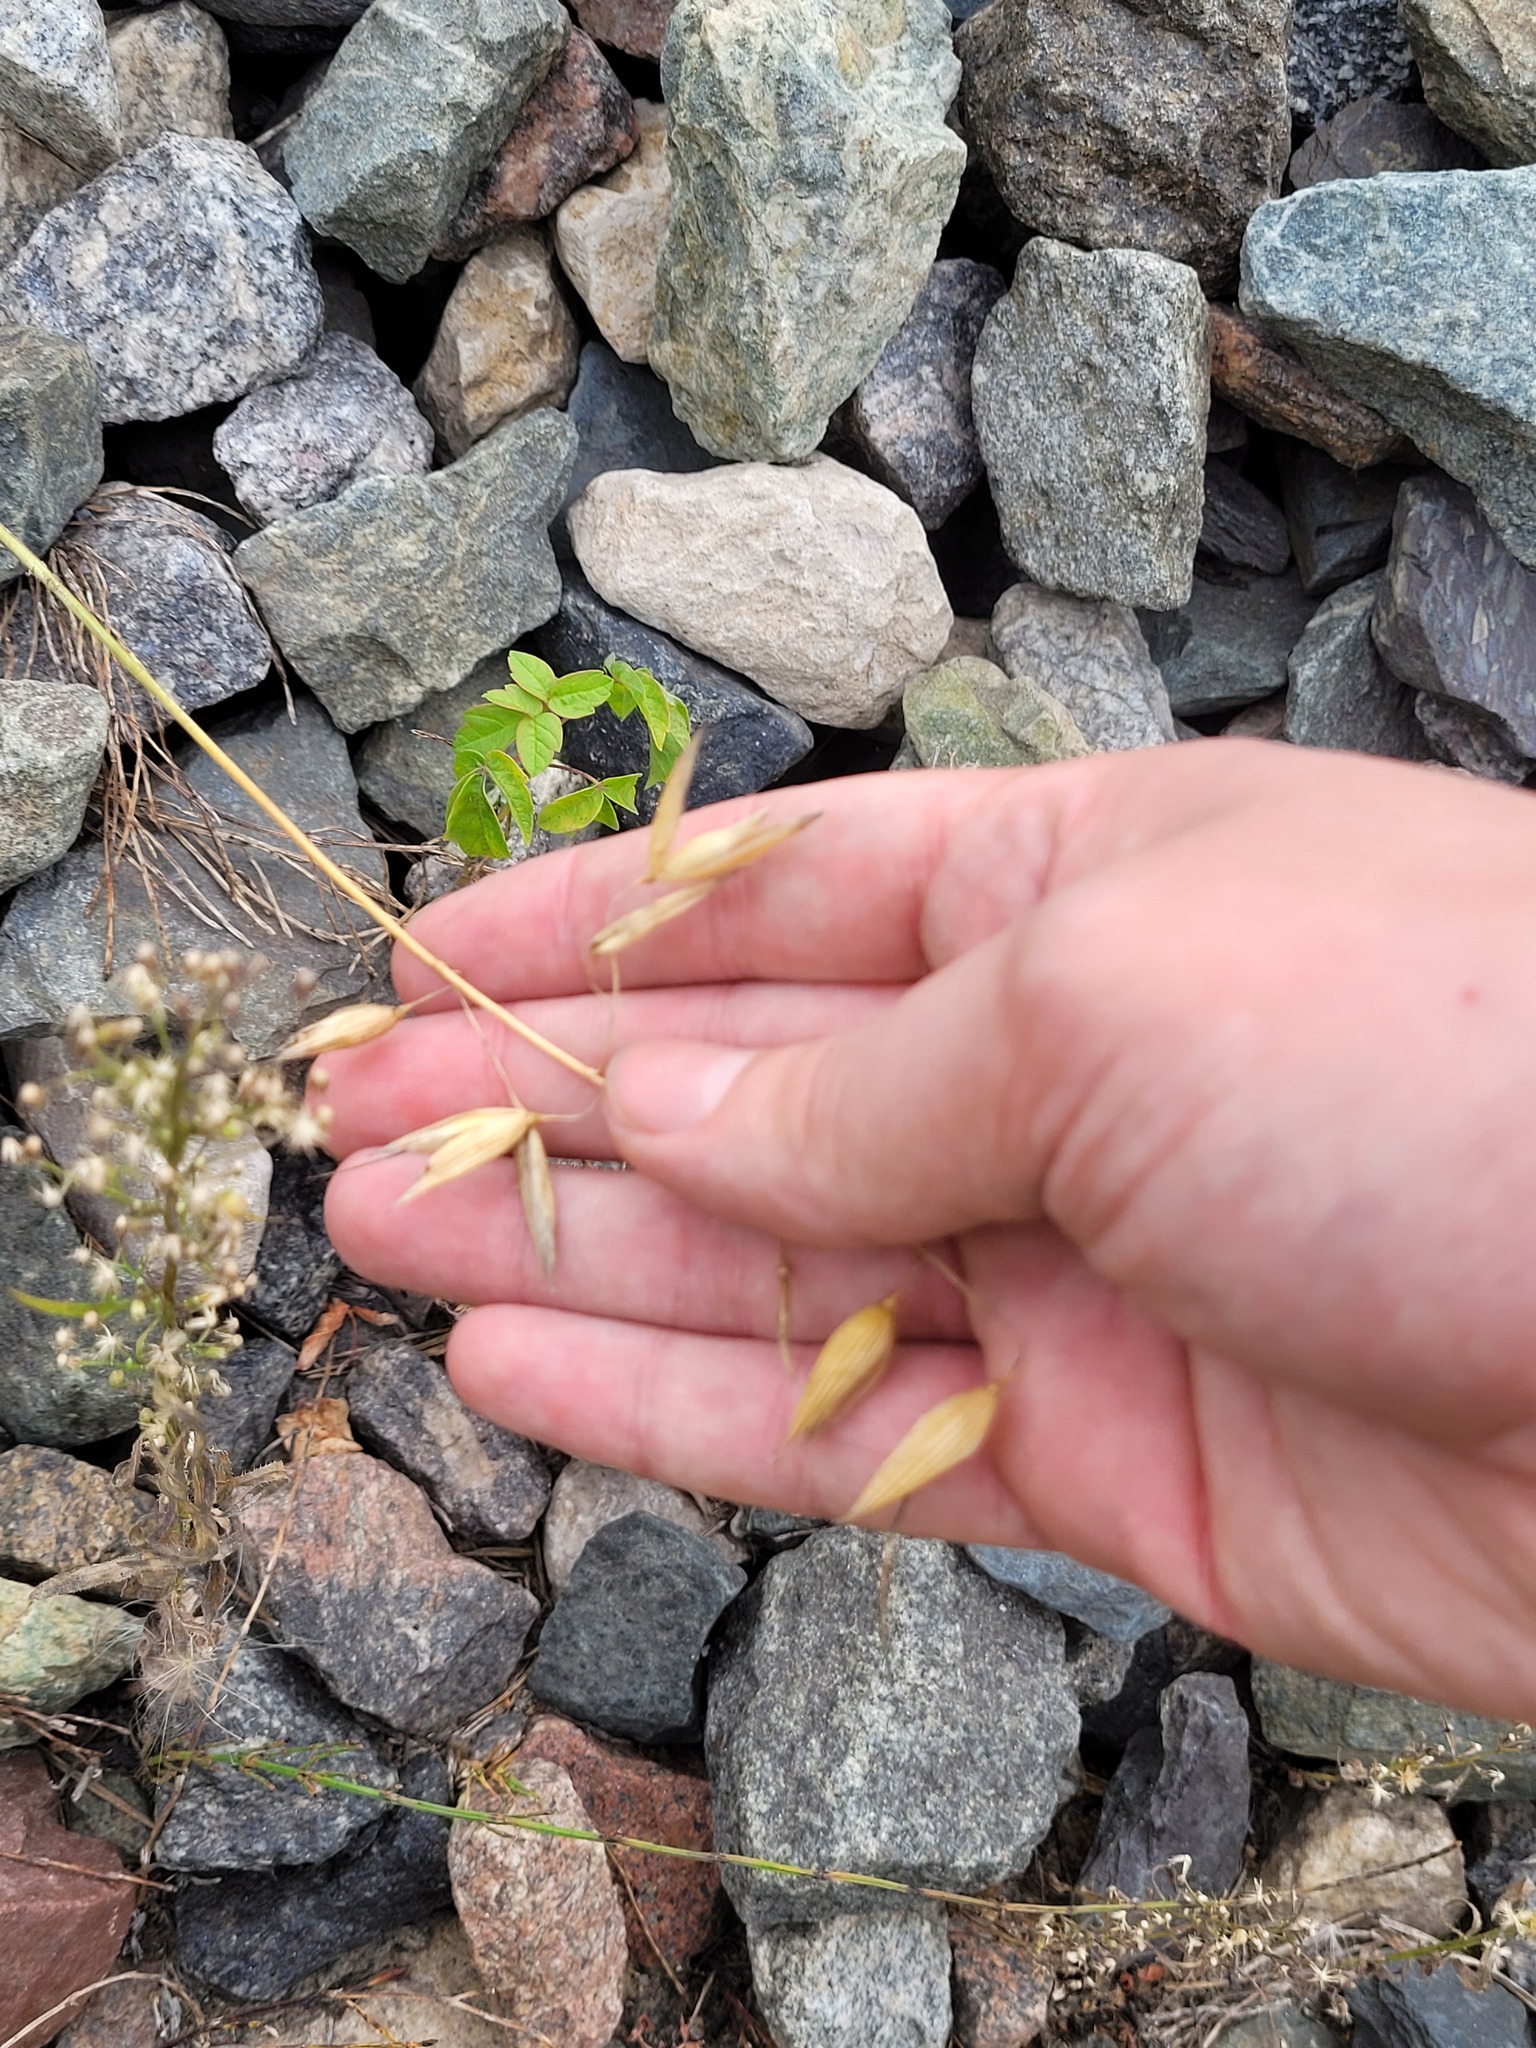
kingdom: Plantae
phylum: Tracheophyta
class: Liliopsida
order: Poales
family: Poaceae
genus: Avena
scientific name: Avena fatua
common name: Wild oat
